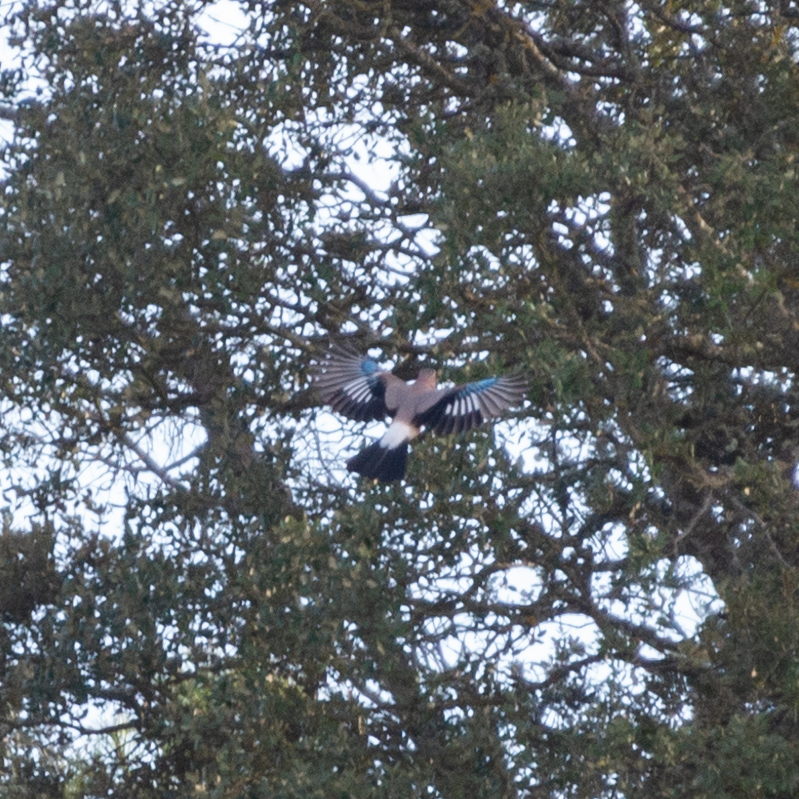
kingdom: Animalia
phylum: Chordata
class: Aves
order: Passeriformes
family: Corvidae
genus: Garrulus
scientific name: Garrulus glandarius
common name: Eurasian jay
